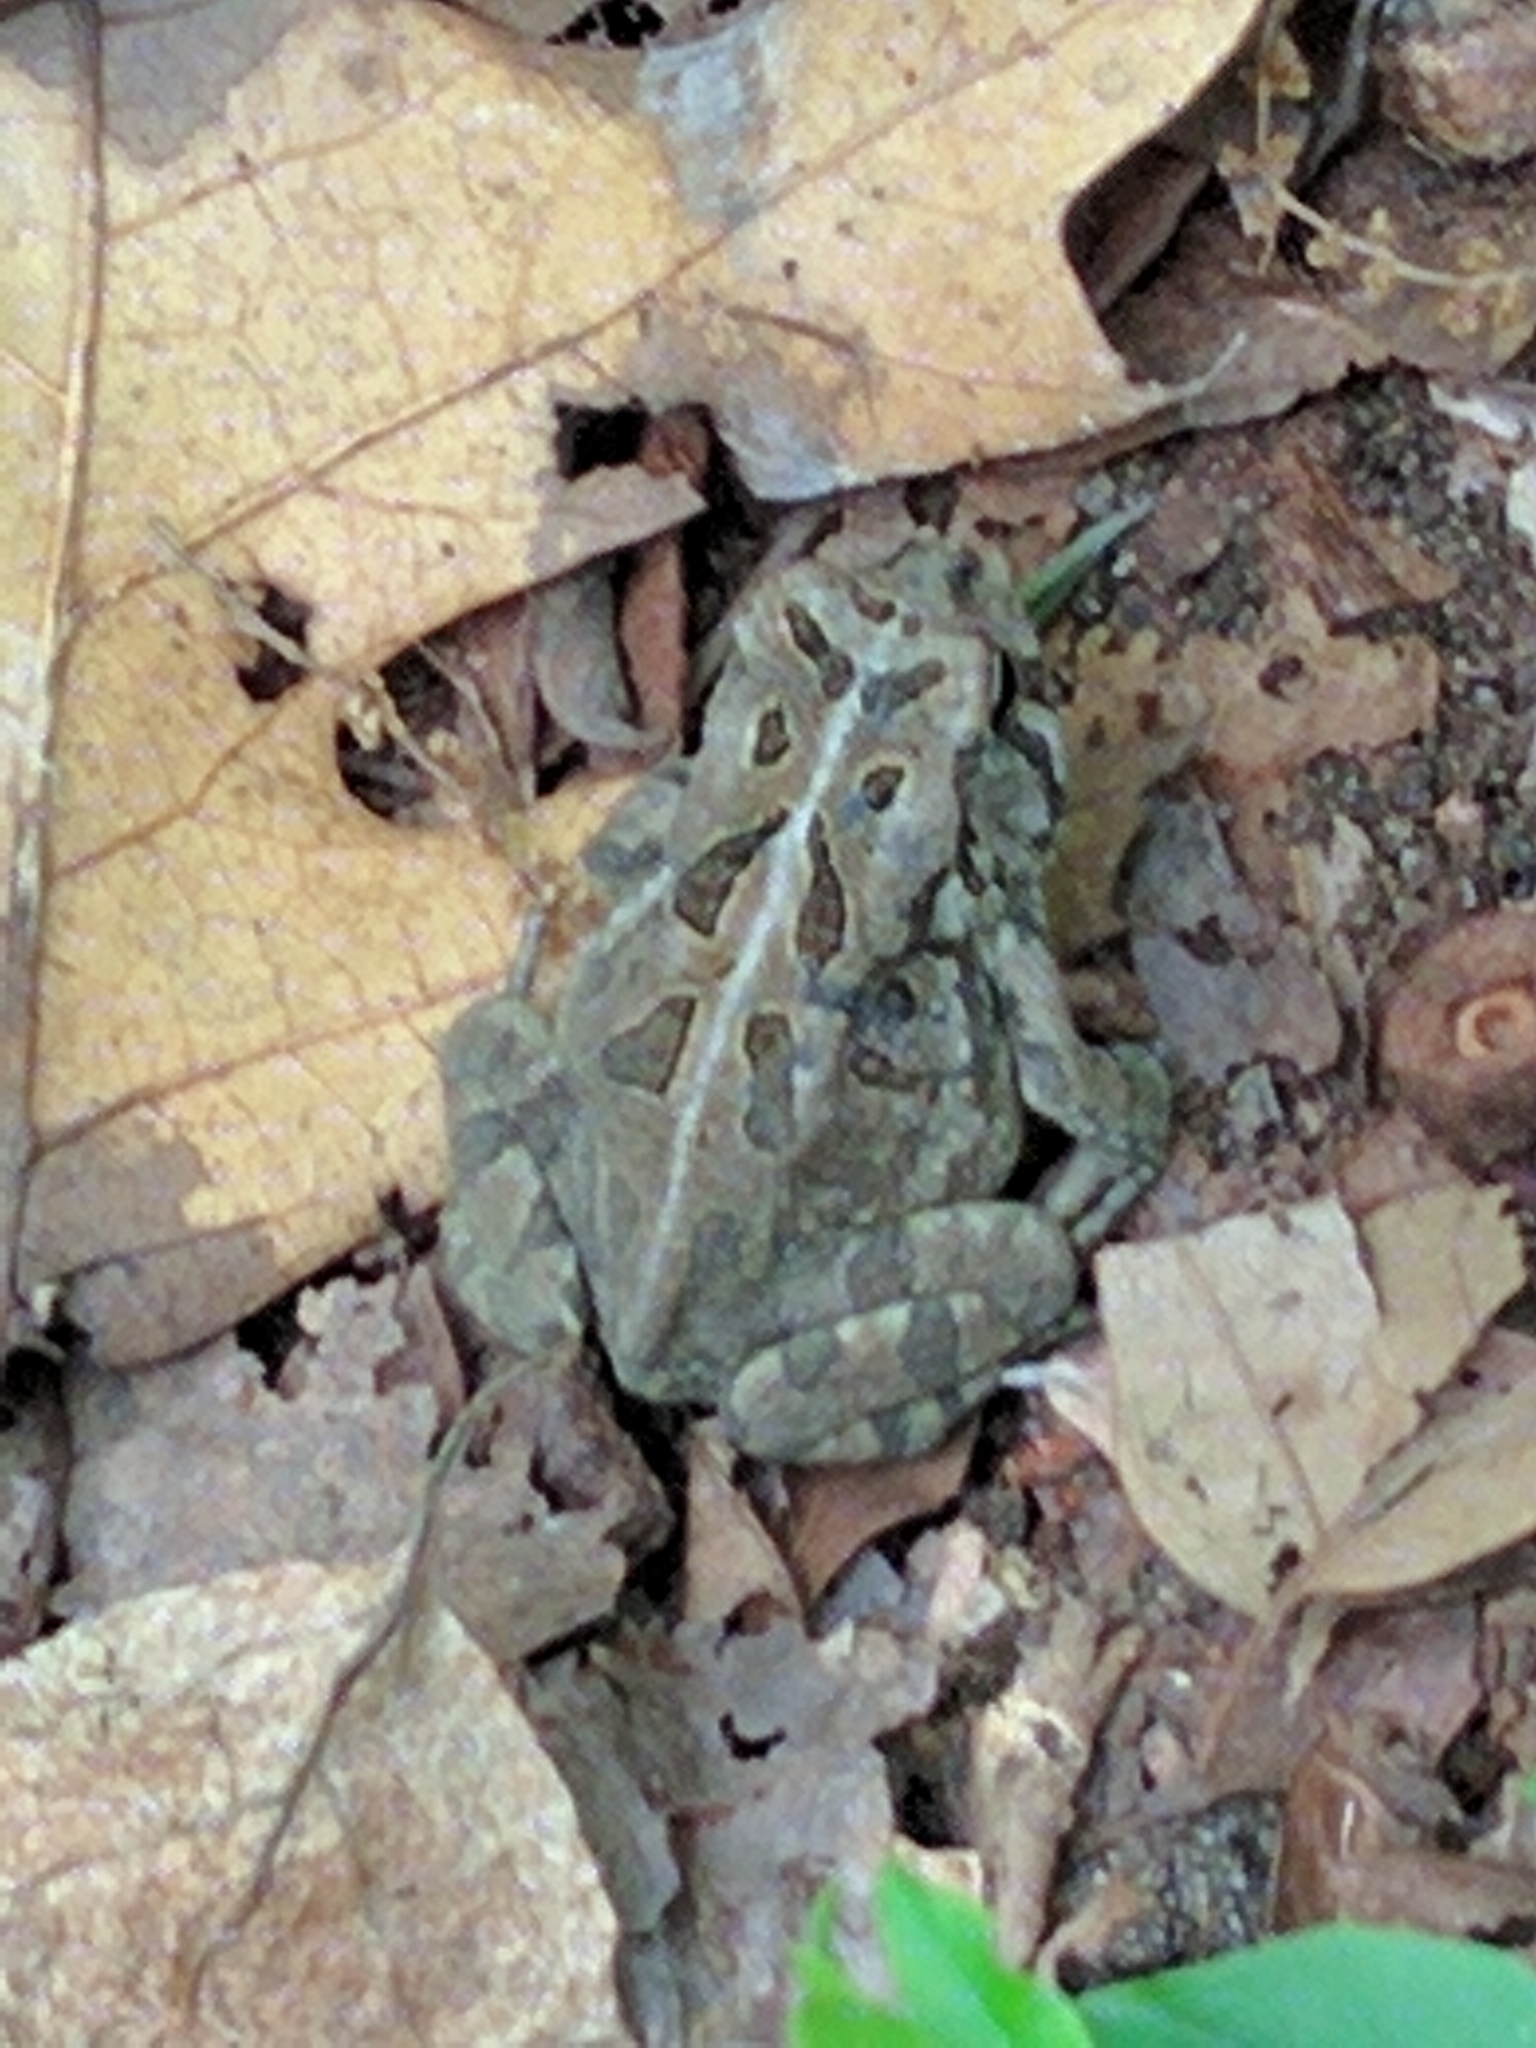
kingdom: Animalia
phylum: Chordata
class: Amphibia
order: Anura
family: Bufonidae
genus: Anaxyrus
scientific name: Anaxyrus fowleri
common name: Fowler's toad
